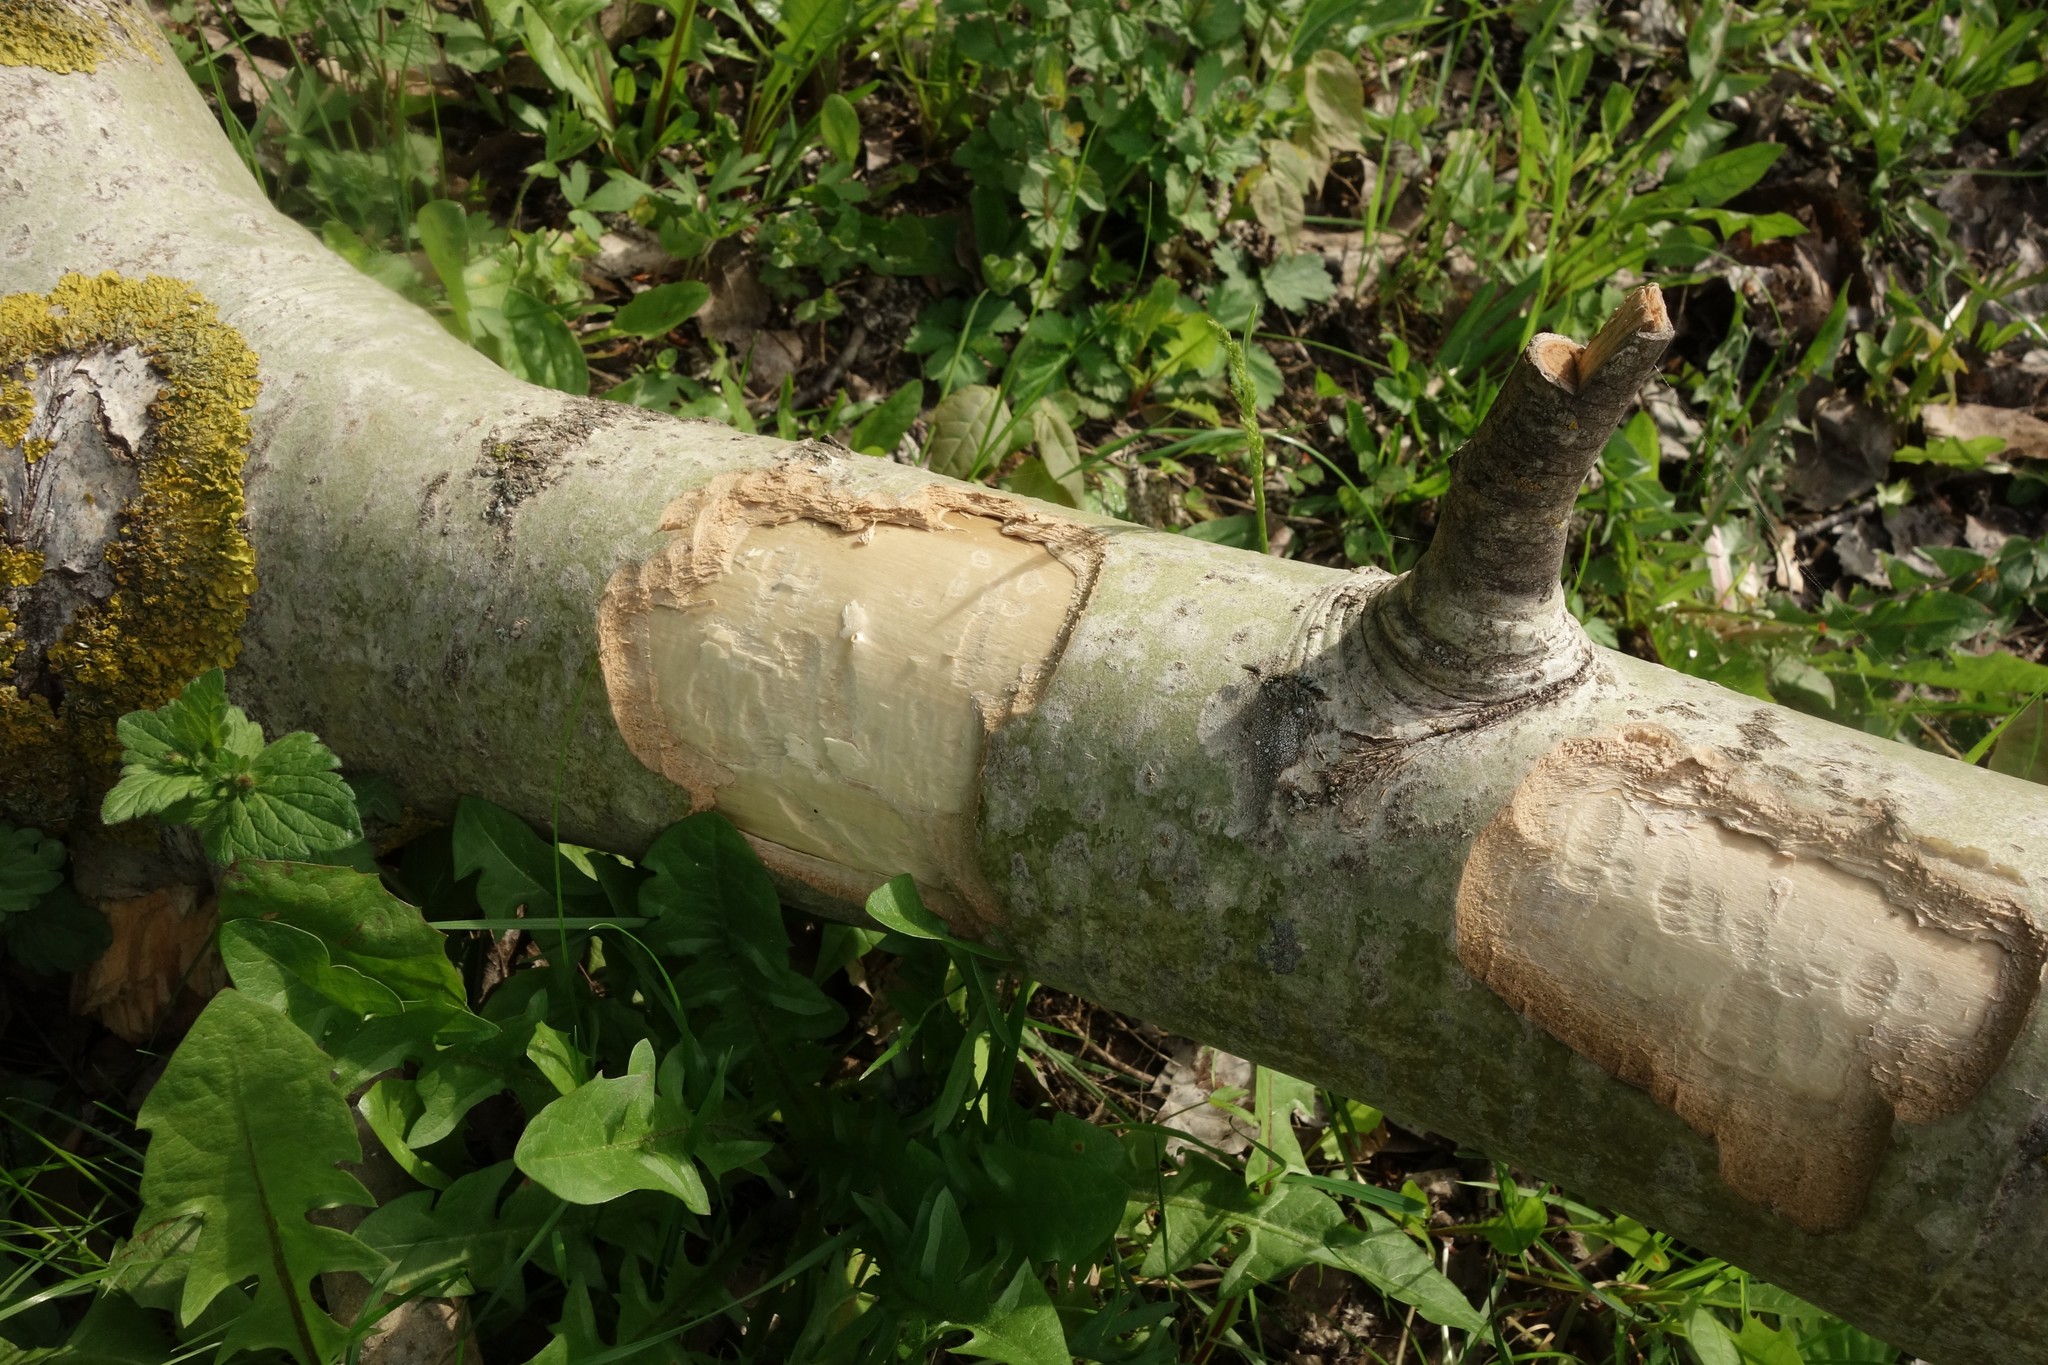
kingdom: Animalia
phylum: Chordata
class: Mammalia
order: Rodentia
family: Castoridae
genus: Castor
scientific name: Castor fiber
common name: Eurasian beaver
